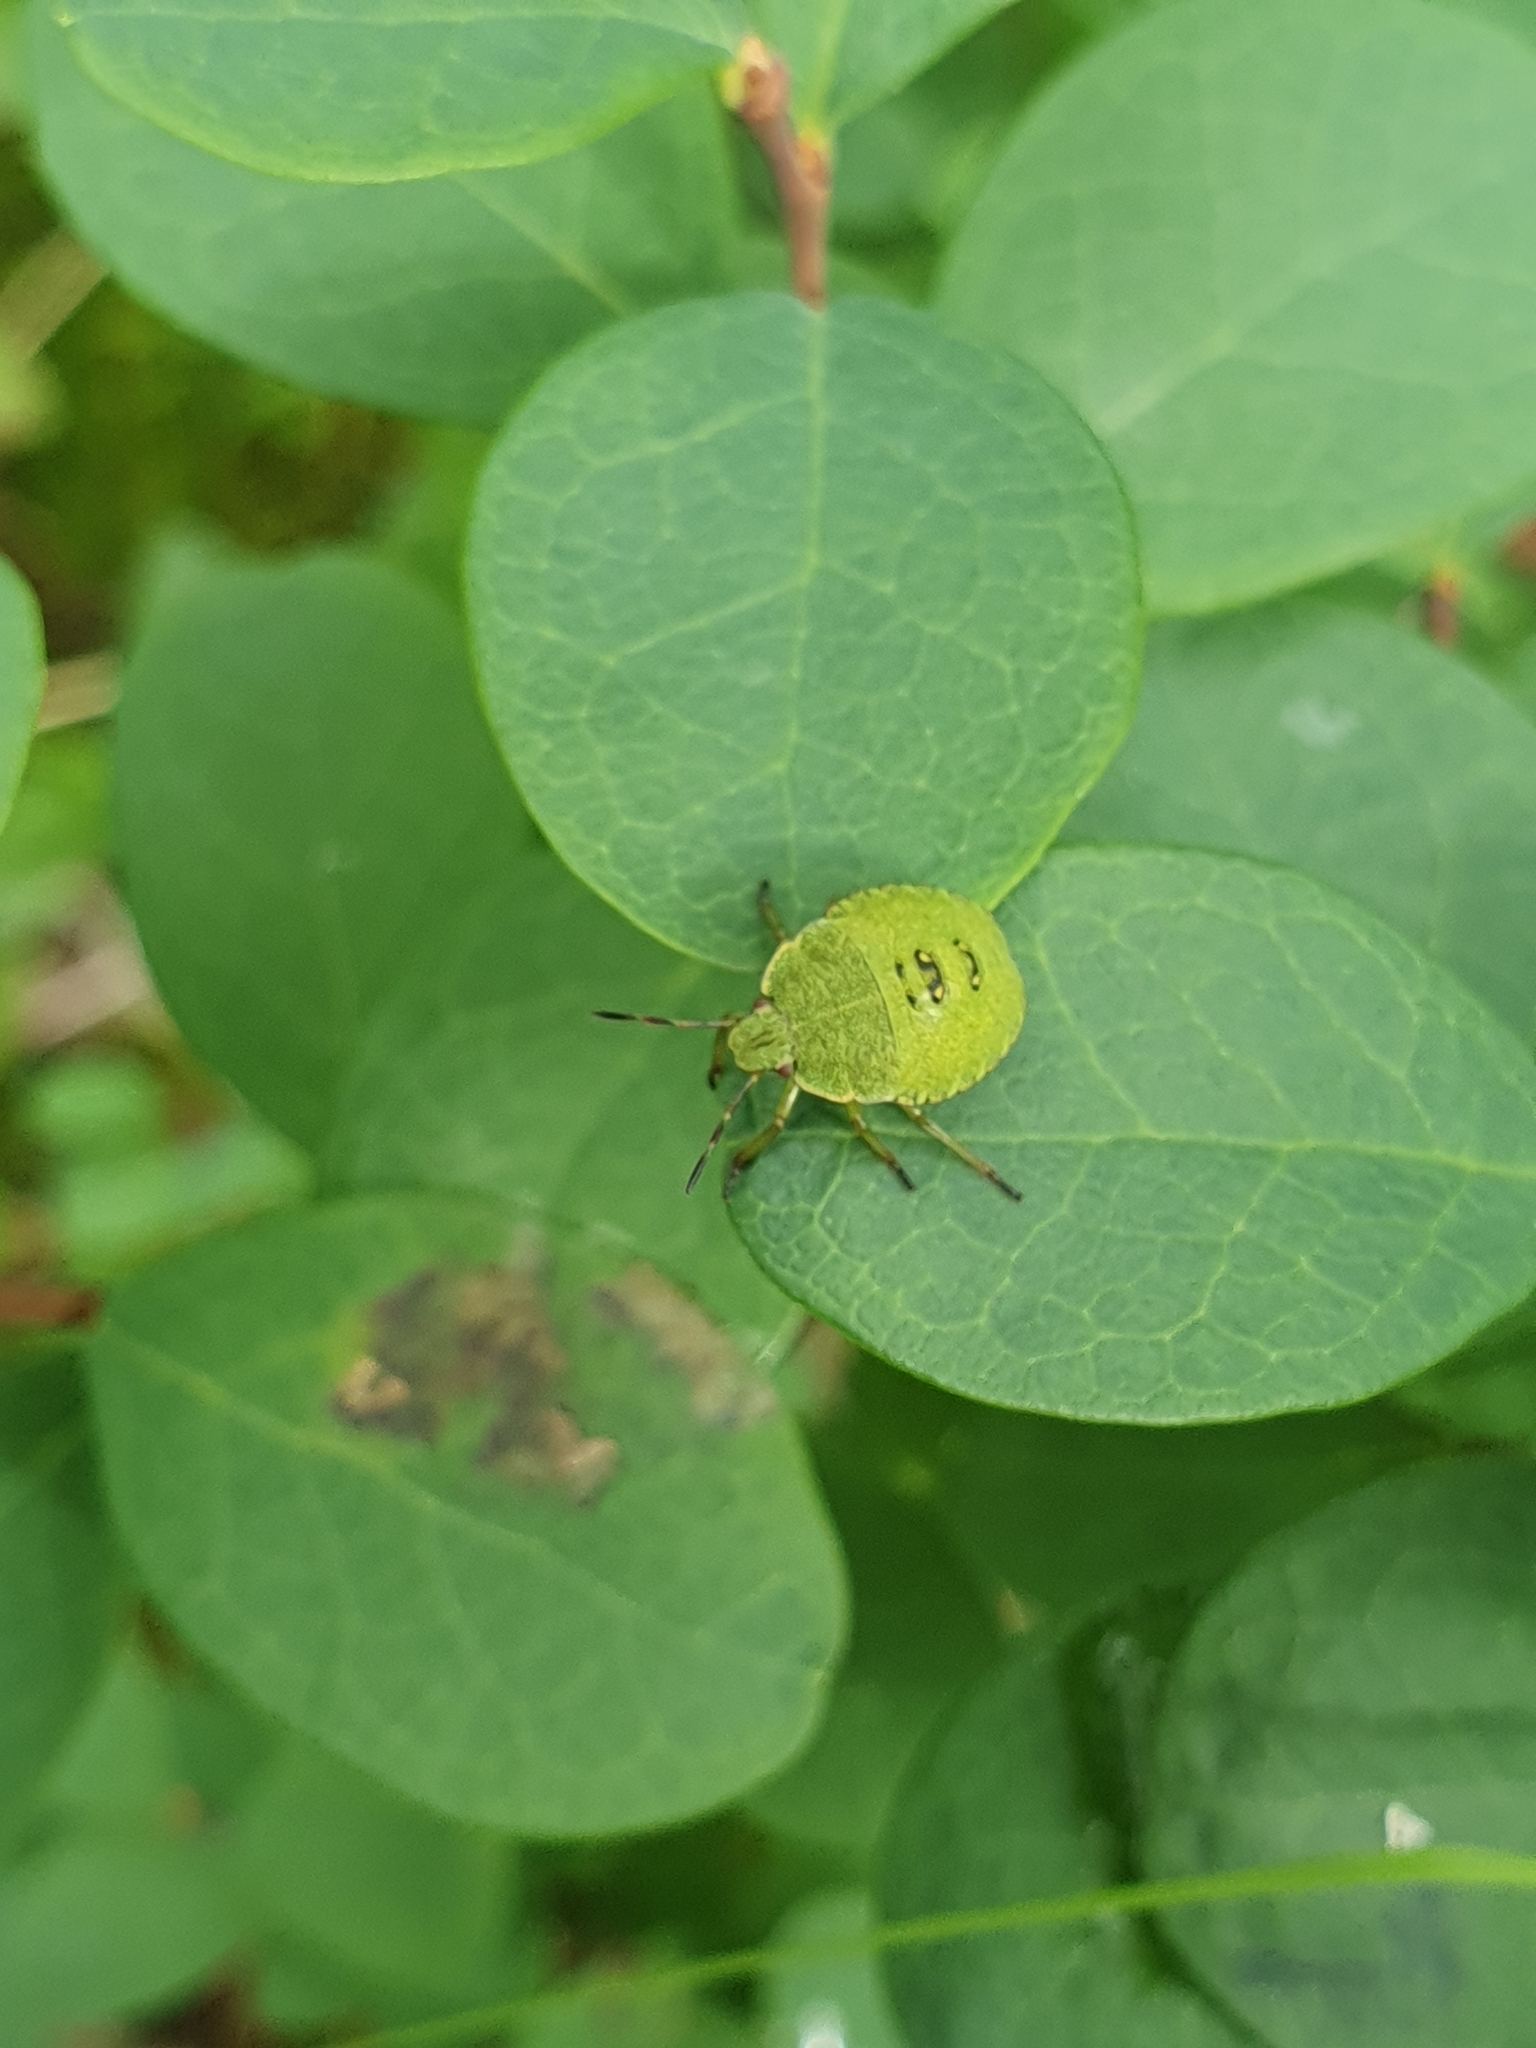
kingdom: Animalia
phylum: Arthropoda
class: Insecta
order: Hemiptera
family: Pentatomidae
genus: Palomena
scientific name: Palomena prasina
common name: Green shieldbug
